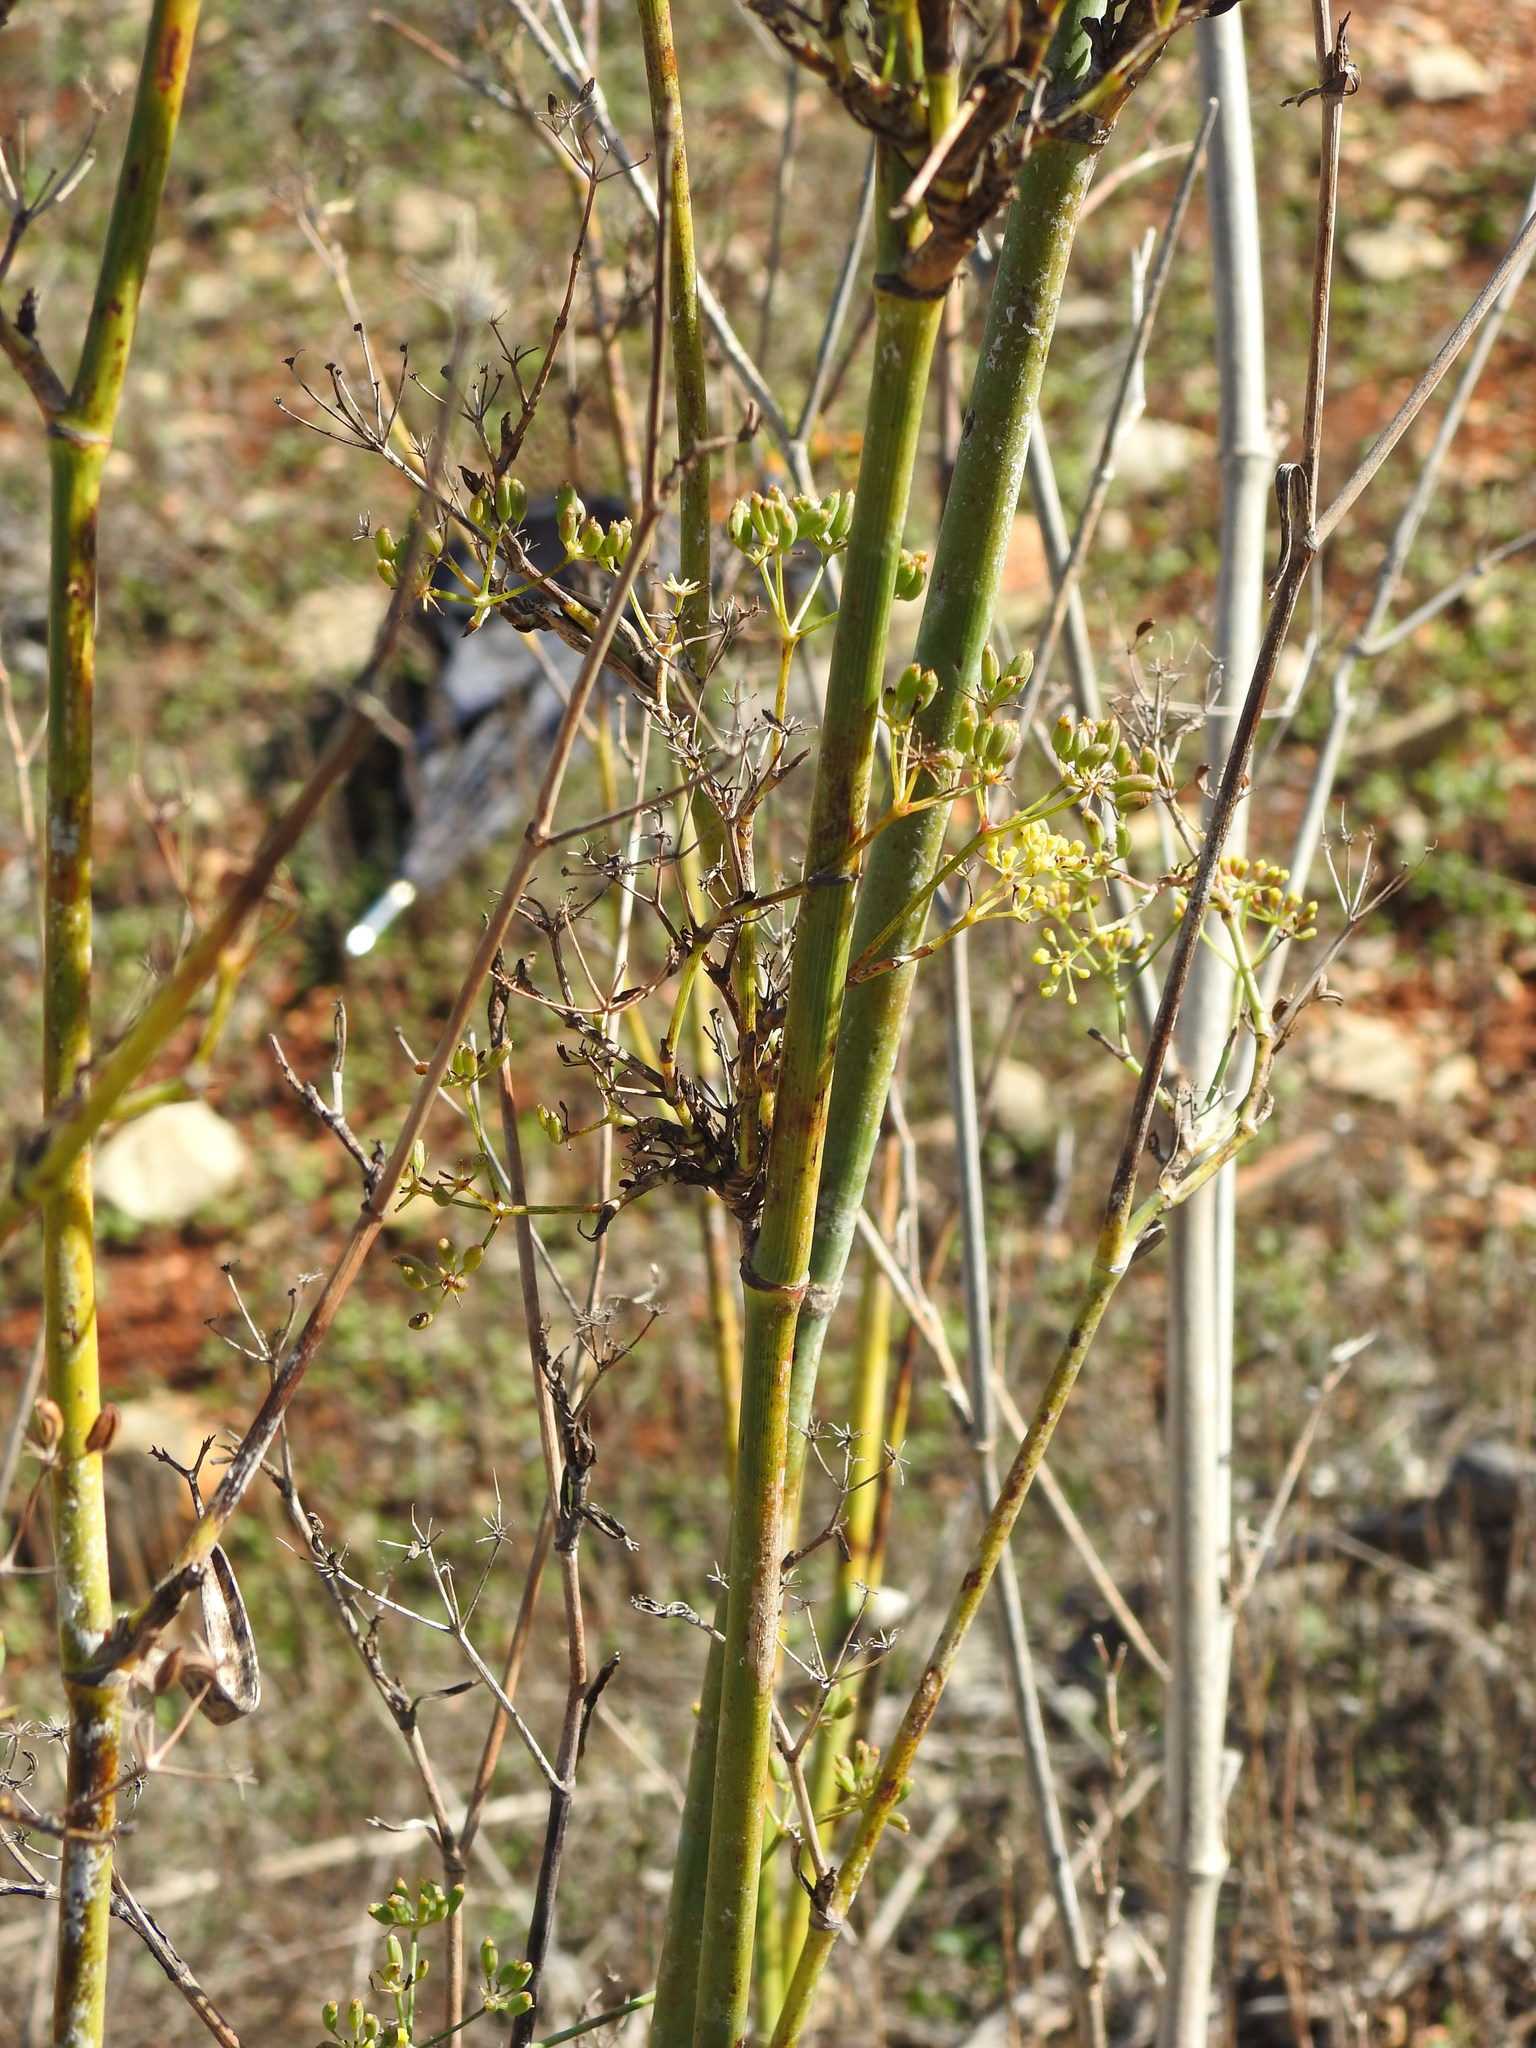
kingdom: Plantae
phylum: Tracheophyta
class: Magnoliopsida
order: Apiales
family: Apiaceae
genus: Foeniculum
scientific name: Foeniculum vulgare
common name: Fennel
